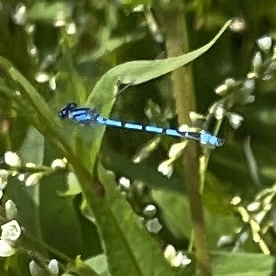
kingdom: Animalia
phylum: Arthropoda
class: Insecta
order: Odonata
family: Coenagrionidae
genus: Enallagma
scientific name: Enallagma
